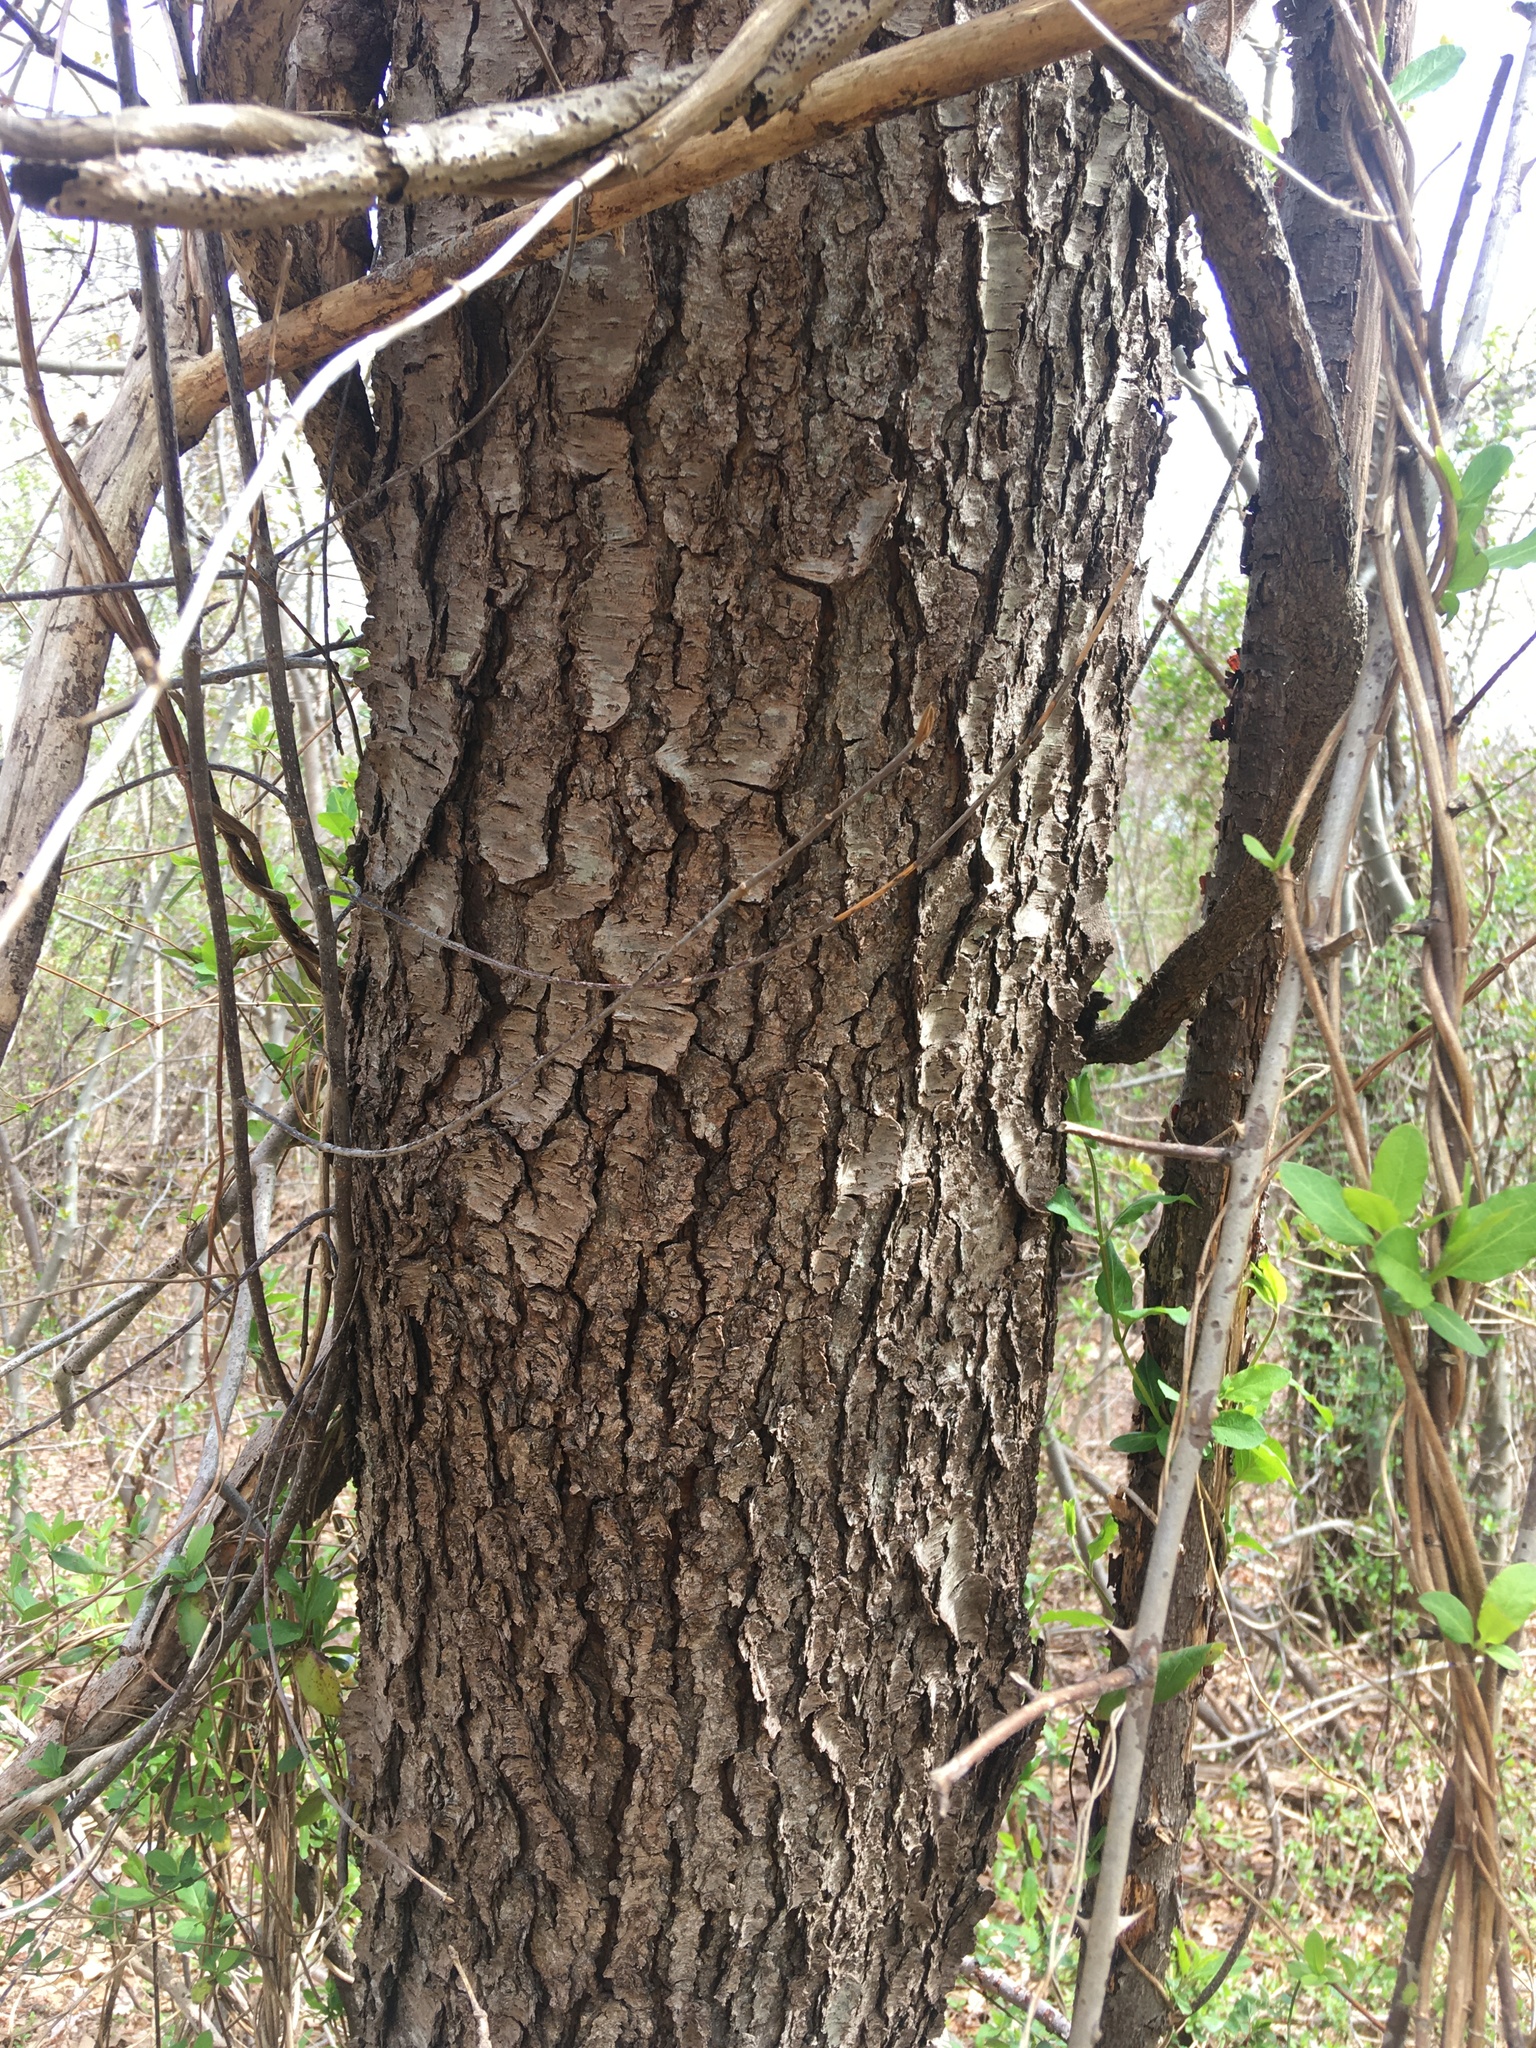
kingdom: Plantae
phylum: Tracheophyta
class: Magnoliopsida
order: Rosales
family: Rosaceae
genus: Prunus
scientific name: Prunus serotina
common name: Black cherry
